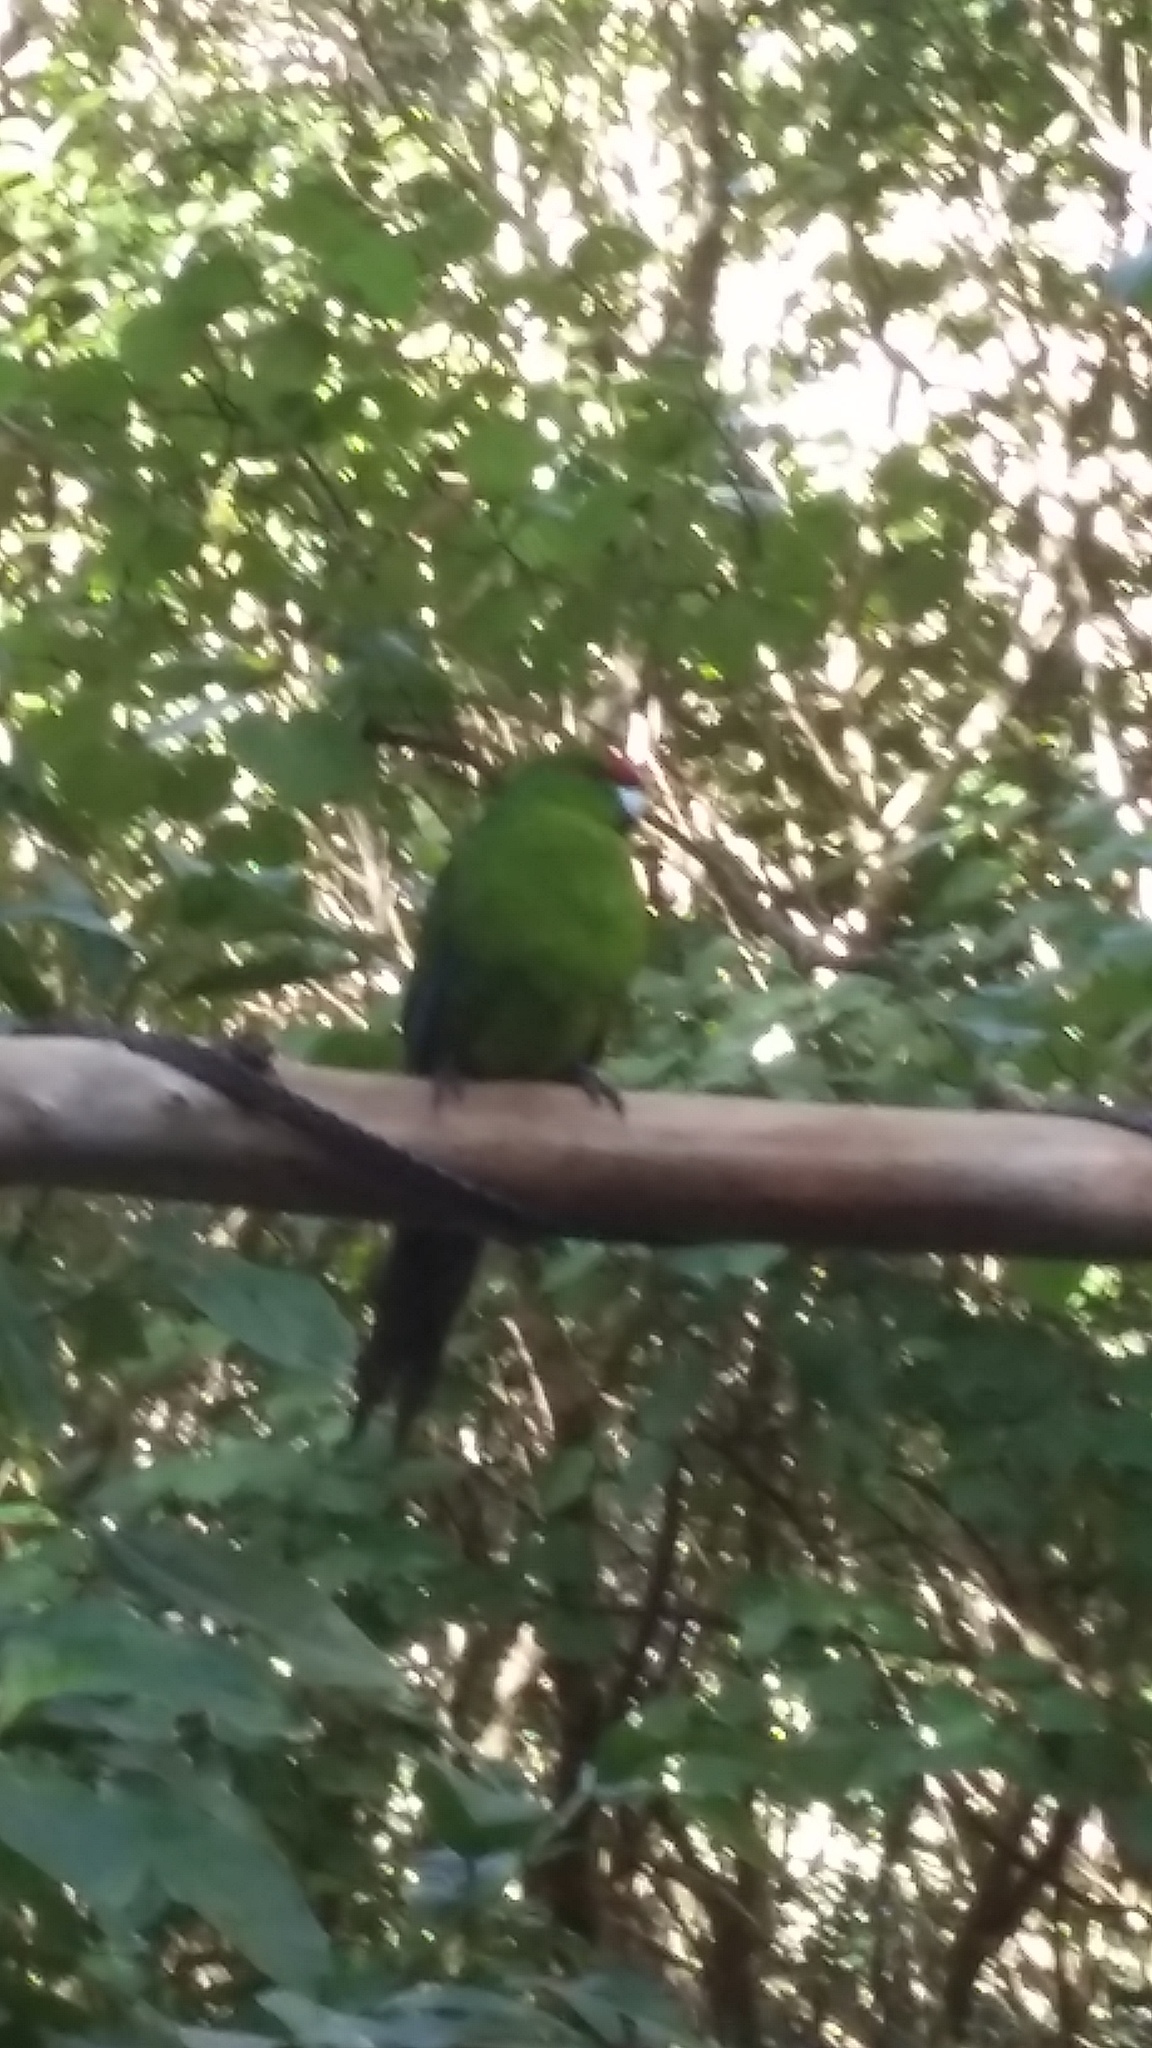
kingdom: Animalia
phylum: Chordata
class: Aves
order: Psittaciformes
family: Psittacidae
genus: Cyanoramphus
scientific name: Cyanoramphus novaezelandiae
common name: Red-fronted parakeet
